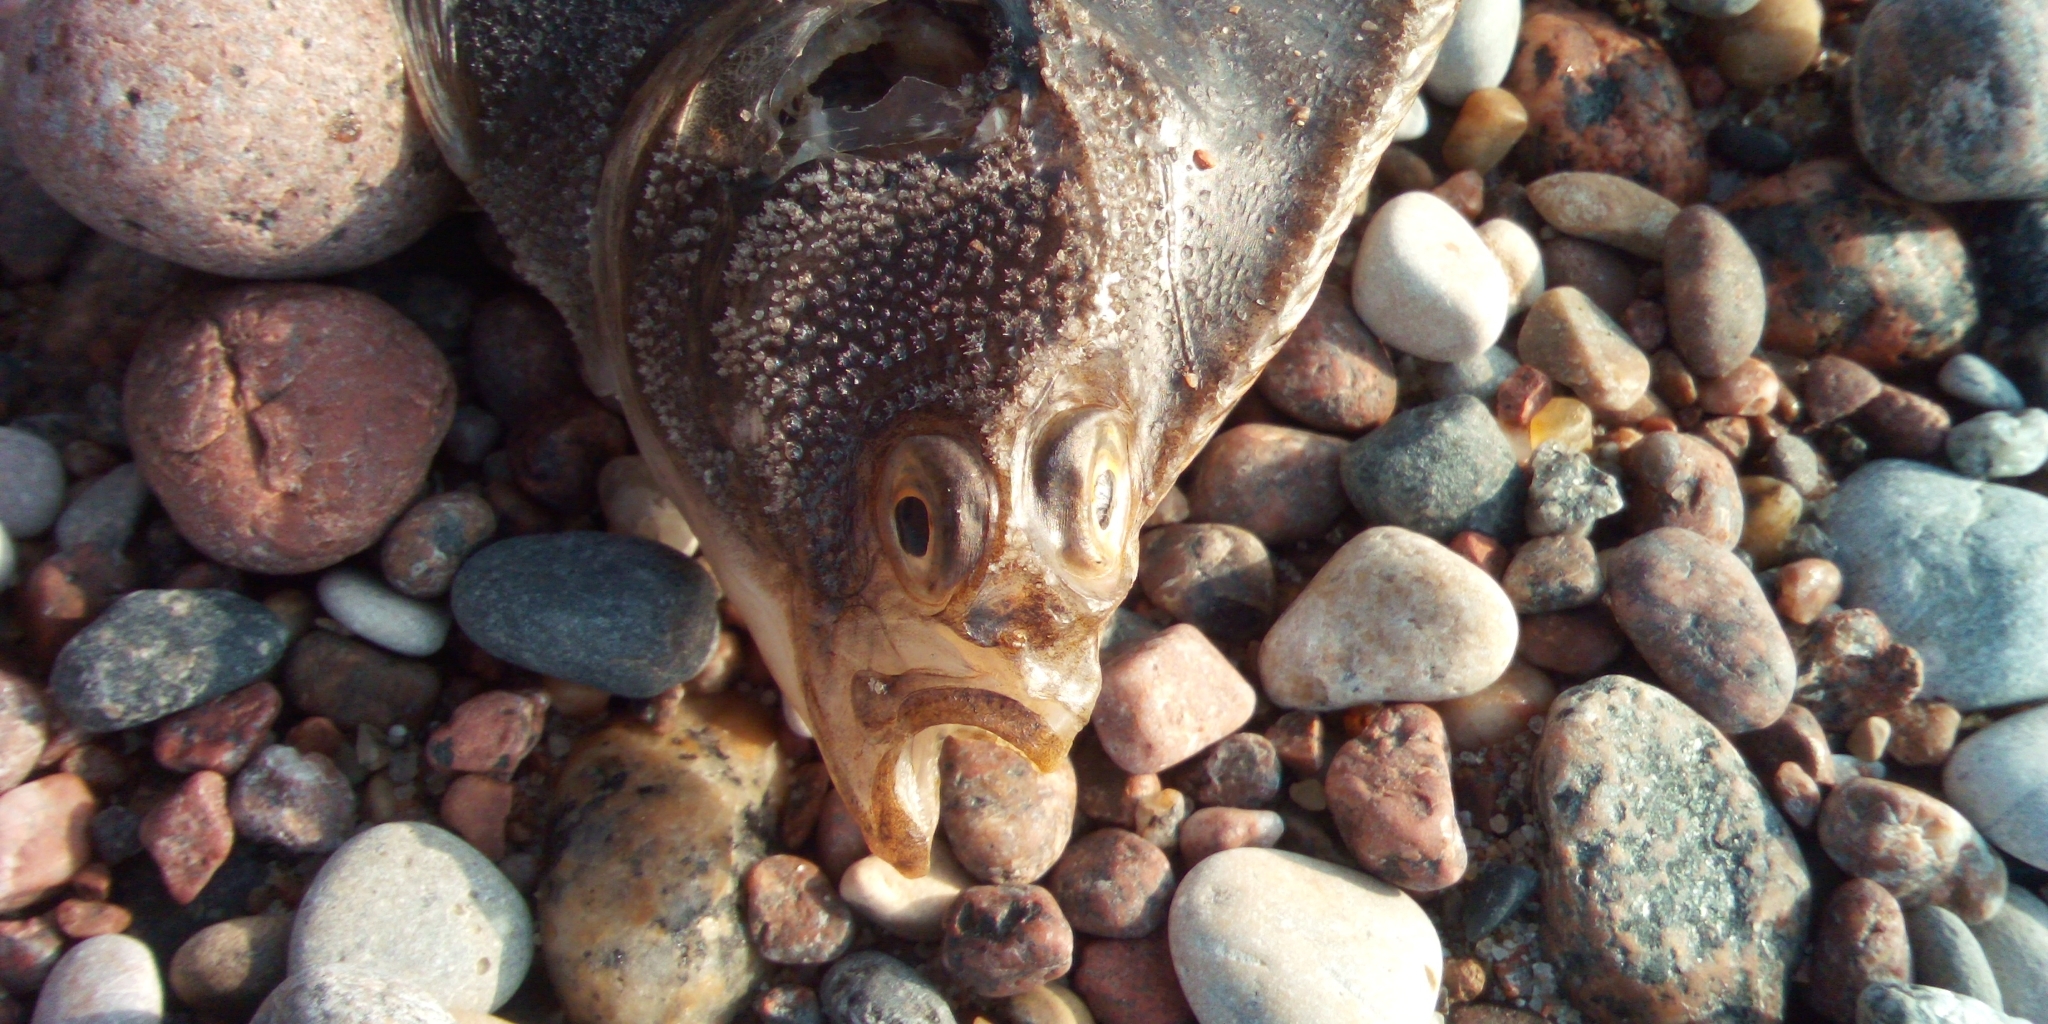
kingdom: Animalia
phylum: Chordata
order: Pleuronectiformes
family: Pleuronectidae
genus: Platichthys
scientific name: Platichthys
